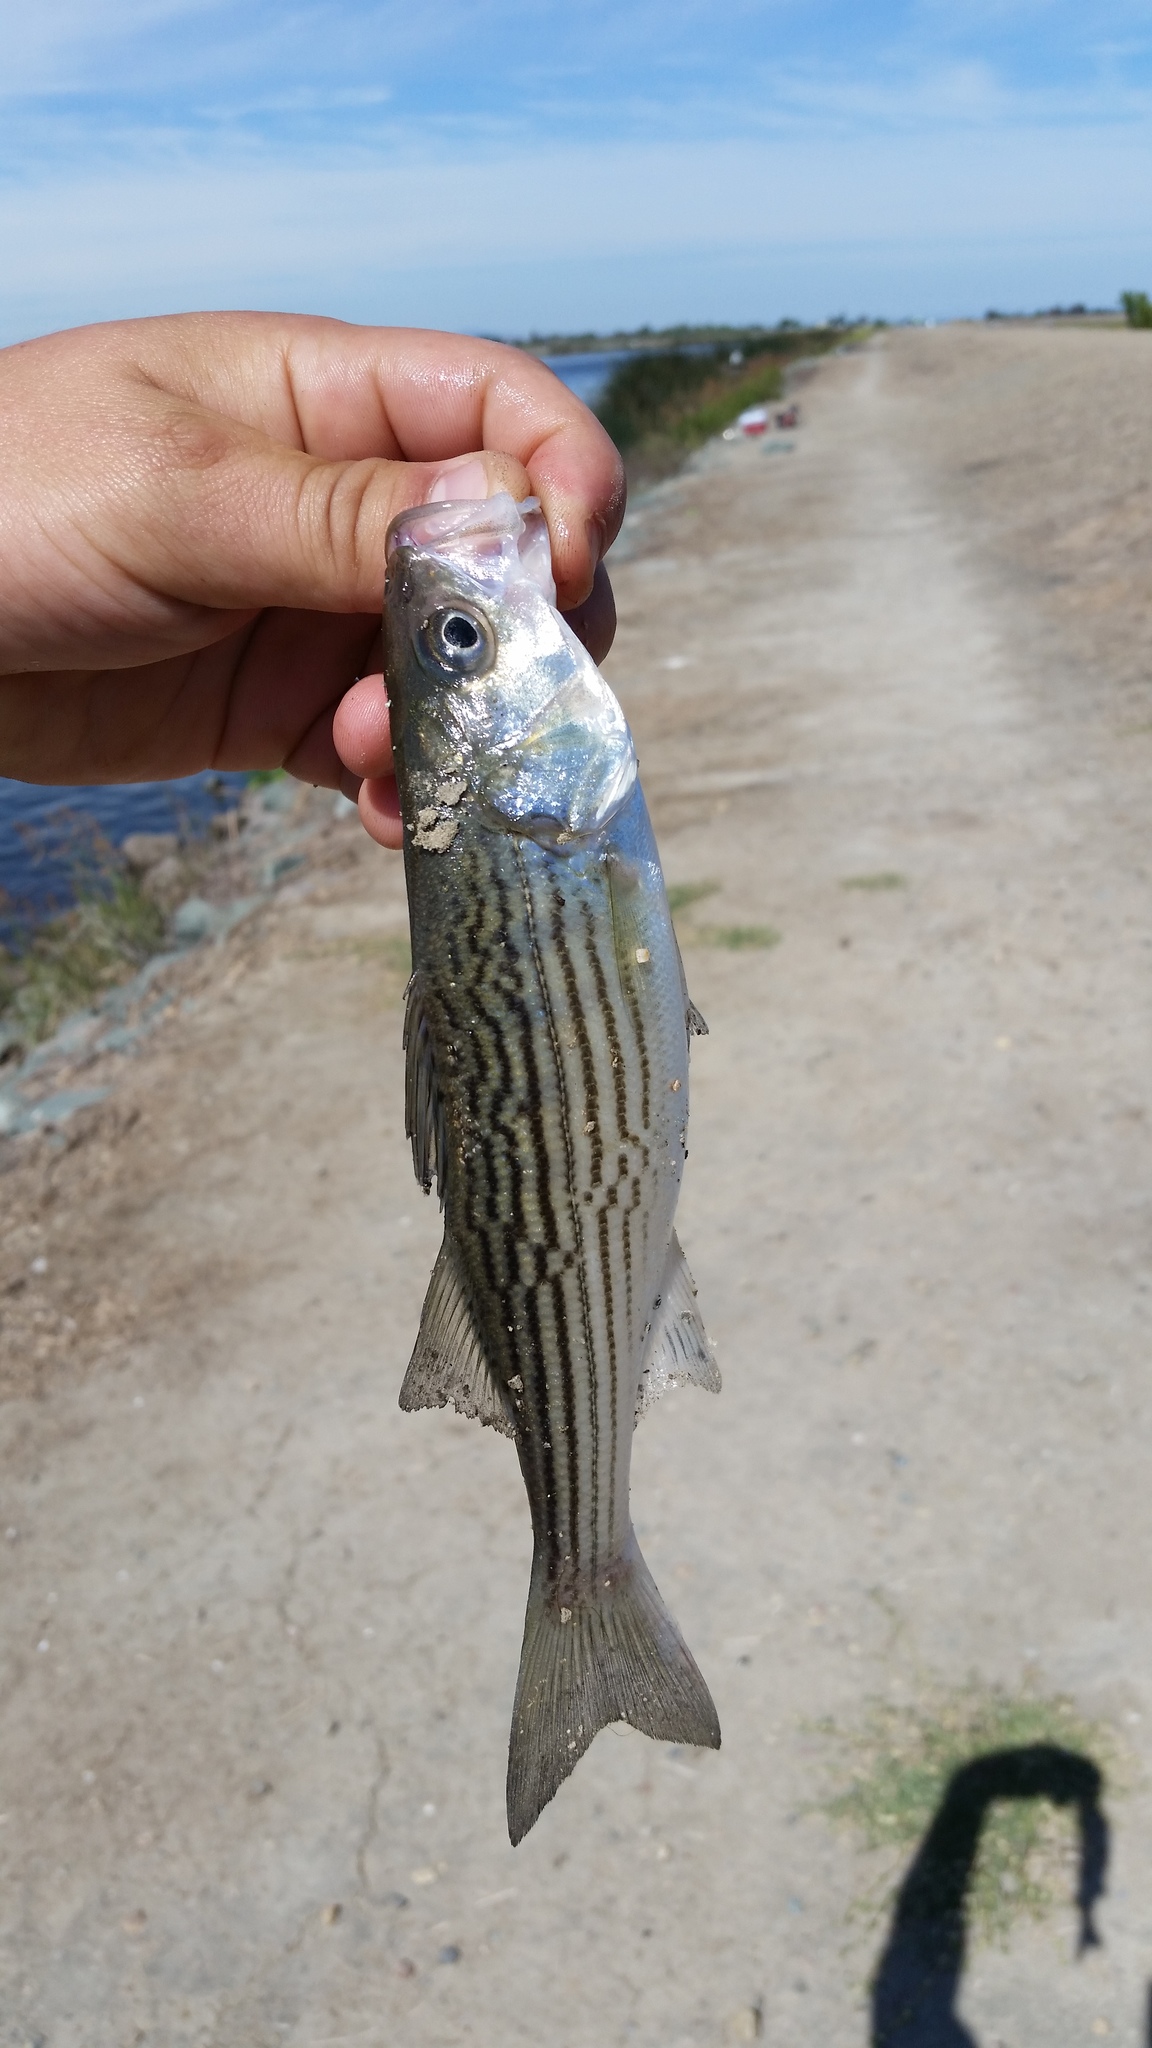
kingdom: Animalia
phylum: Chordata
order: Perciformes
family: Moronidae
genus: Morone
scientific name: Morone saxatilis
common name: Striped bass
